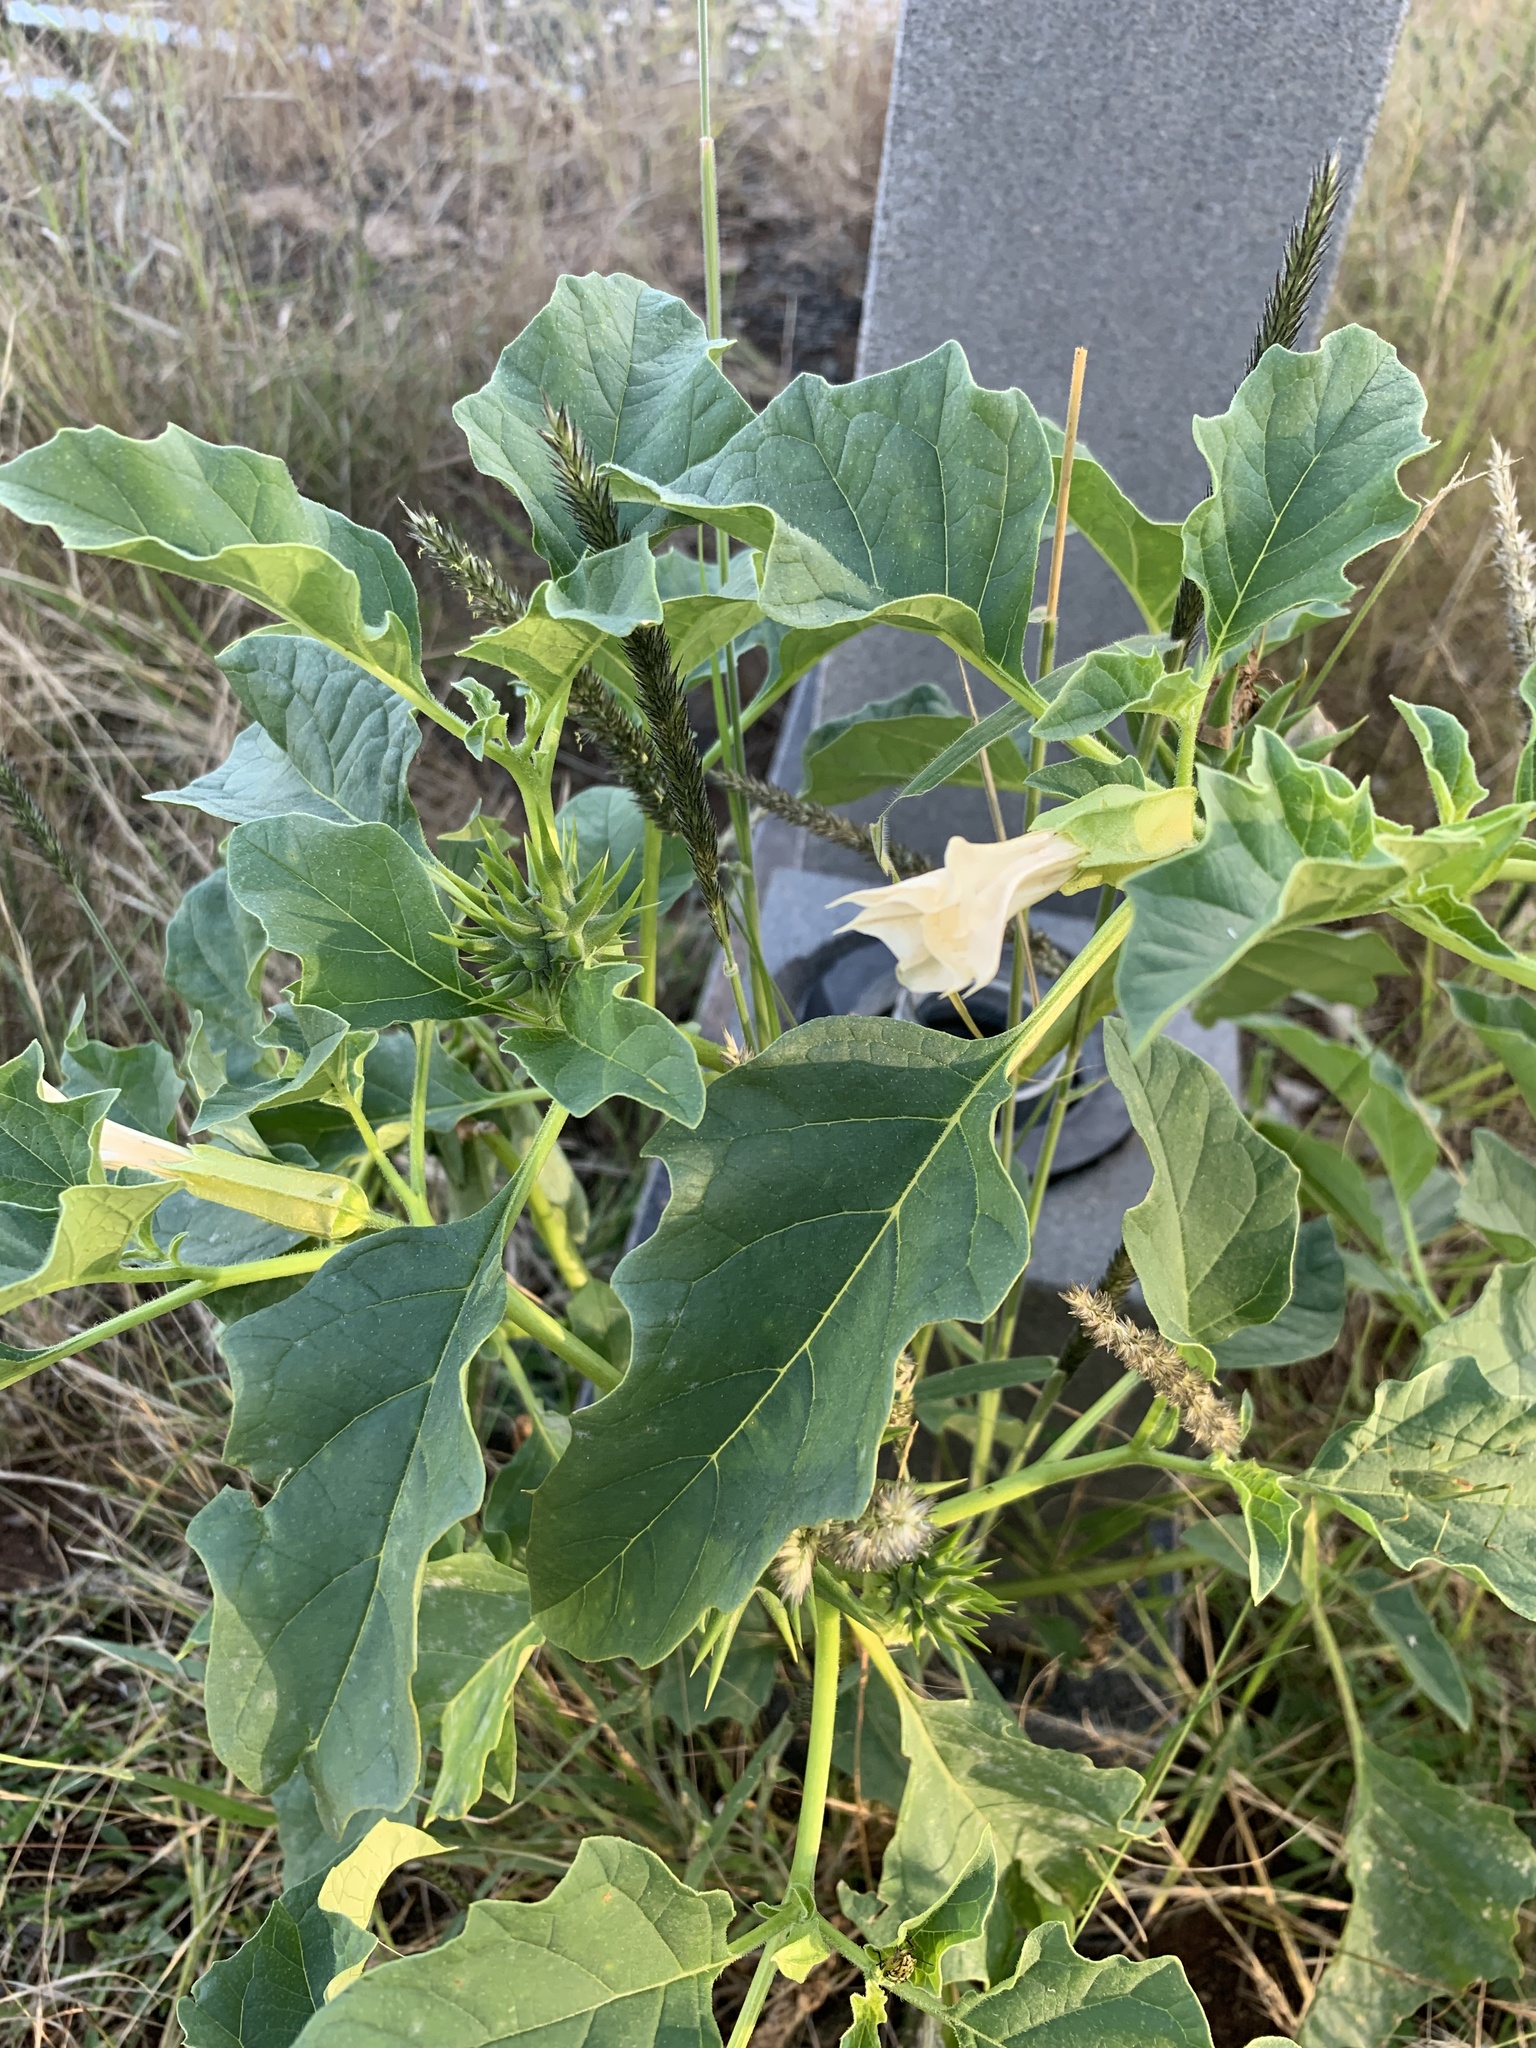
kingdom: Plantae
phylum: Tracheophyta
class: Magnoliopsida
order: Solanales
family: Solanaceae
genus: Datura
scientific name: Datura ferox
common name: Angel's-trumpets
